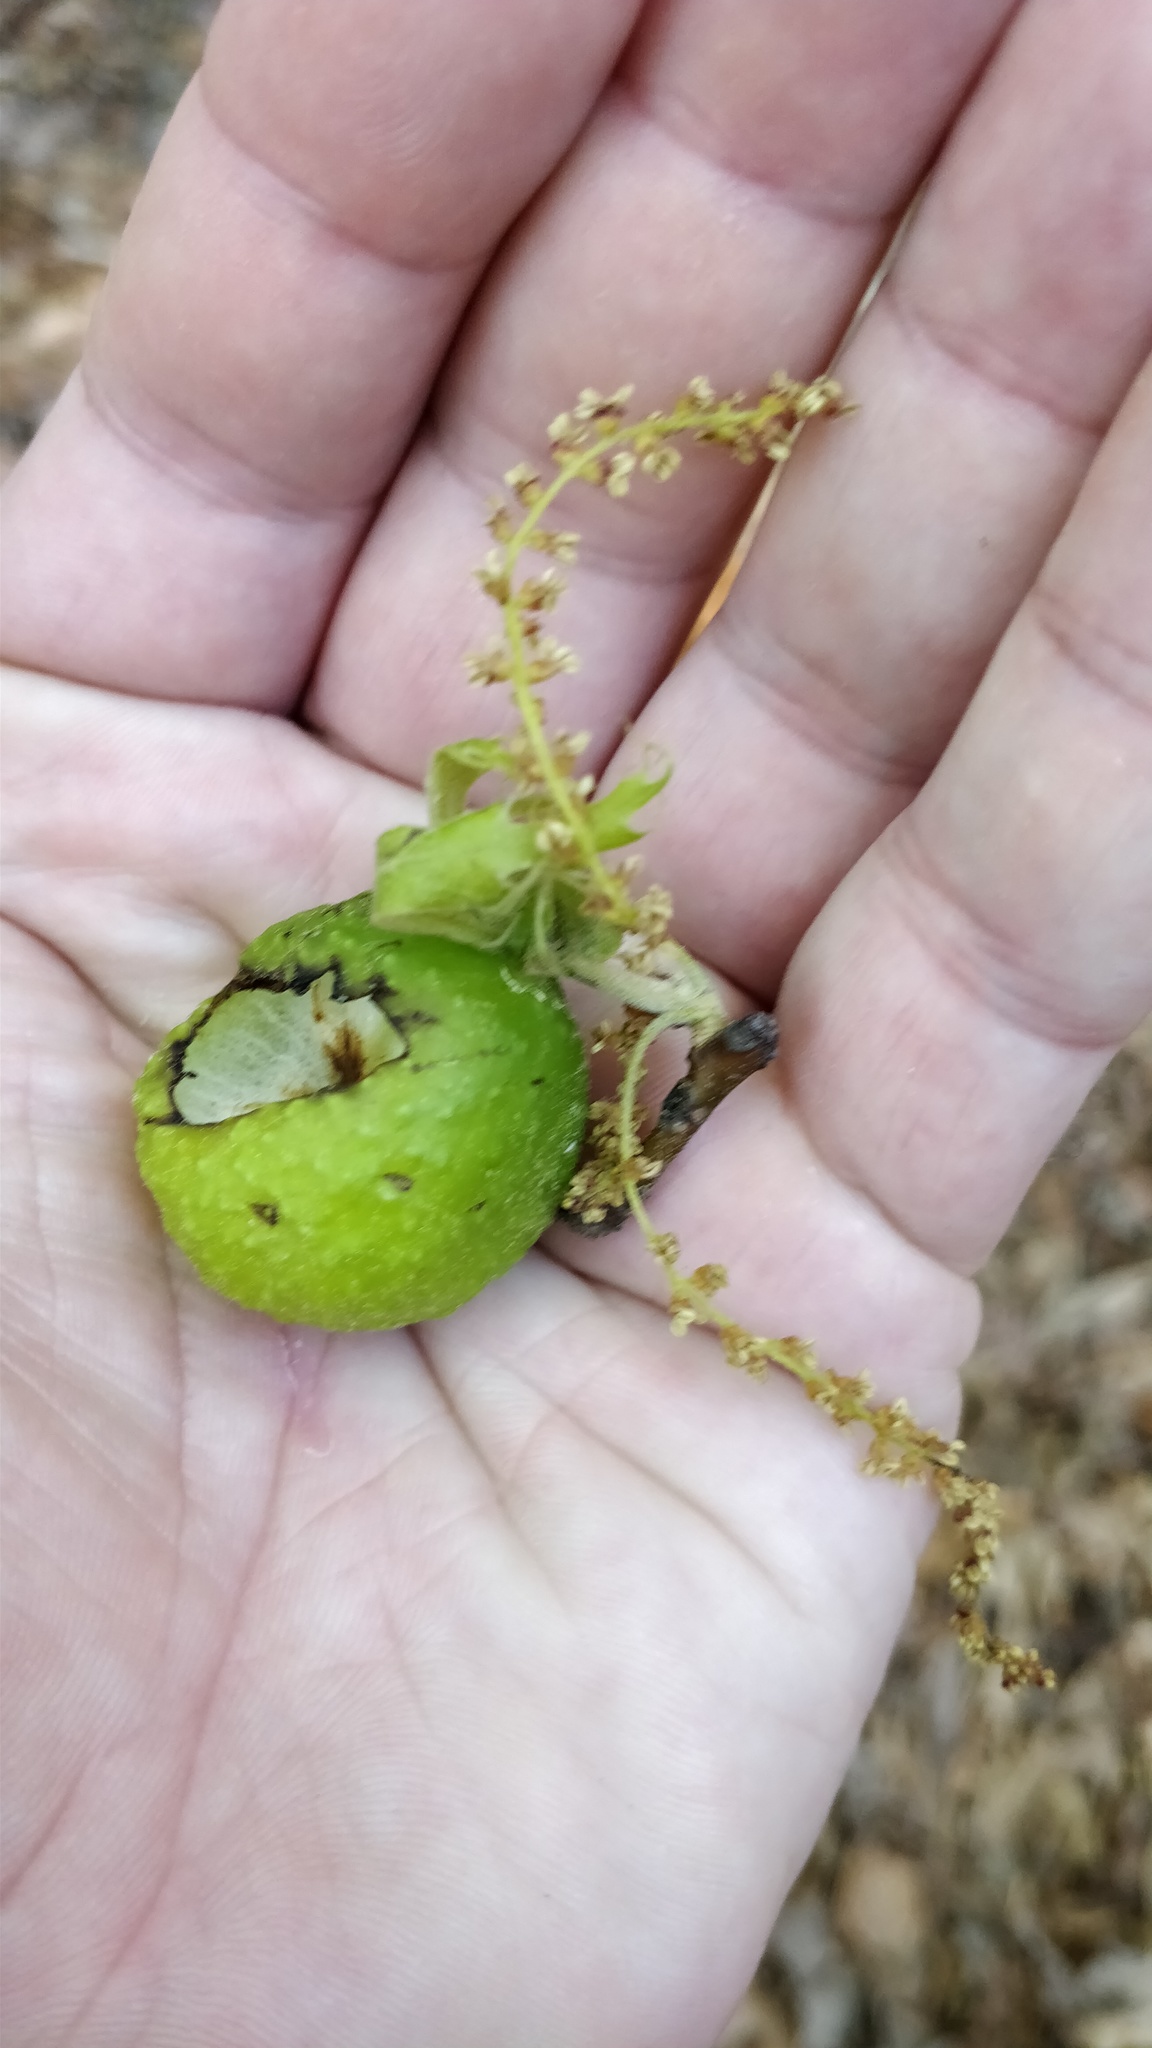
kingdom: Animalia
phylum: Arthropoda
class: Insecta
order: Hymenoptera
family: Cynipidae
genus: Amphibolips
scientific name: Amphibolips
